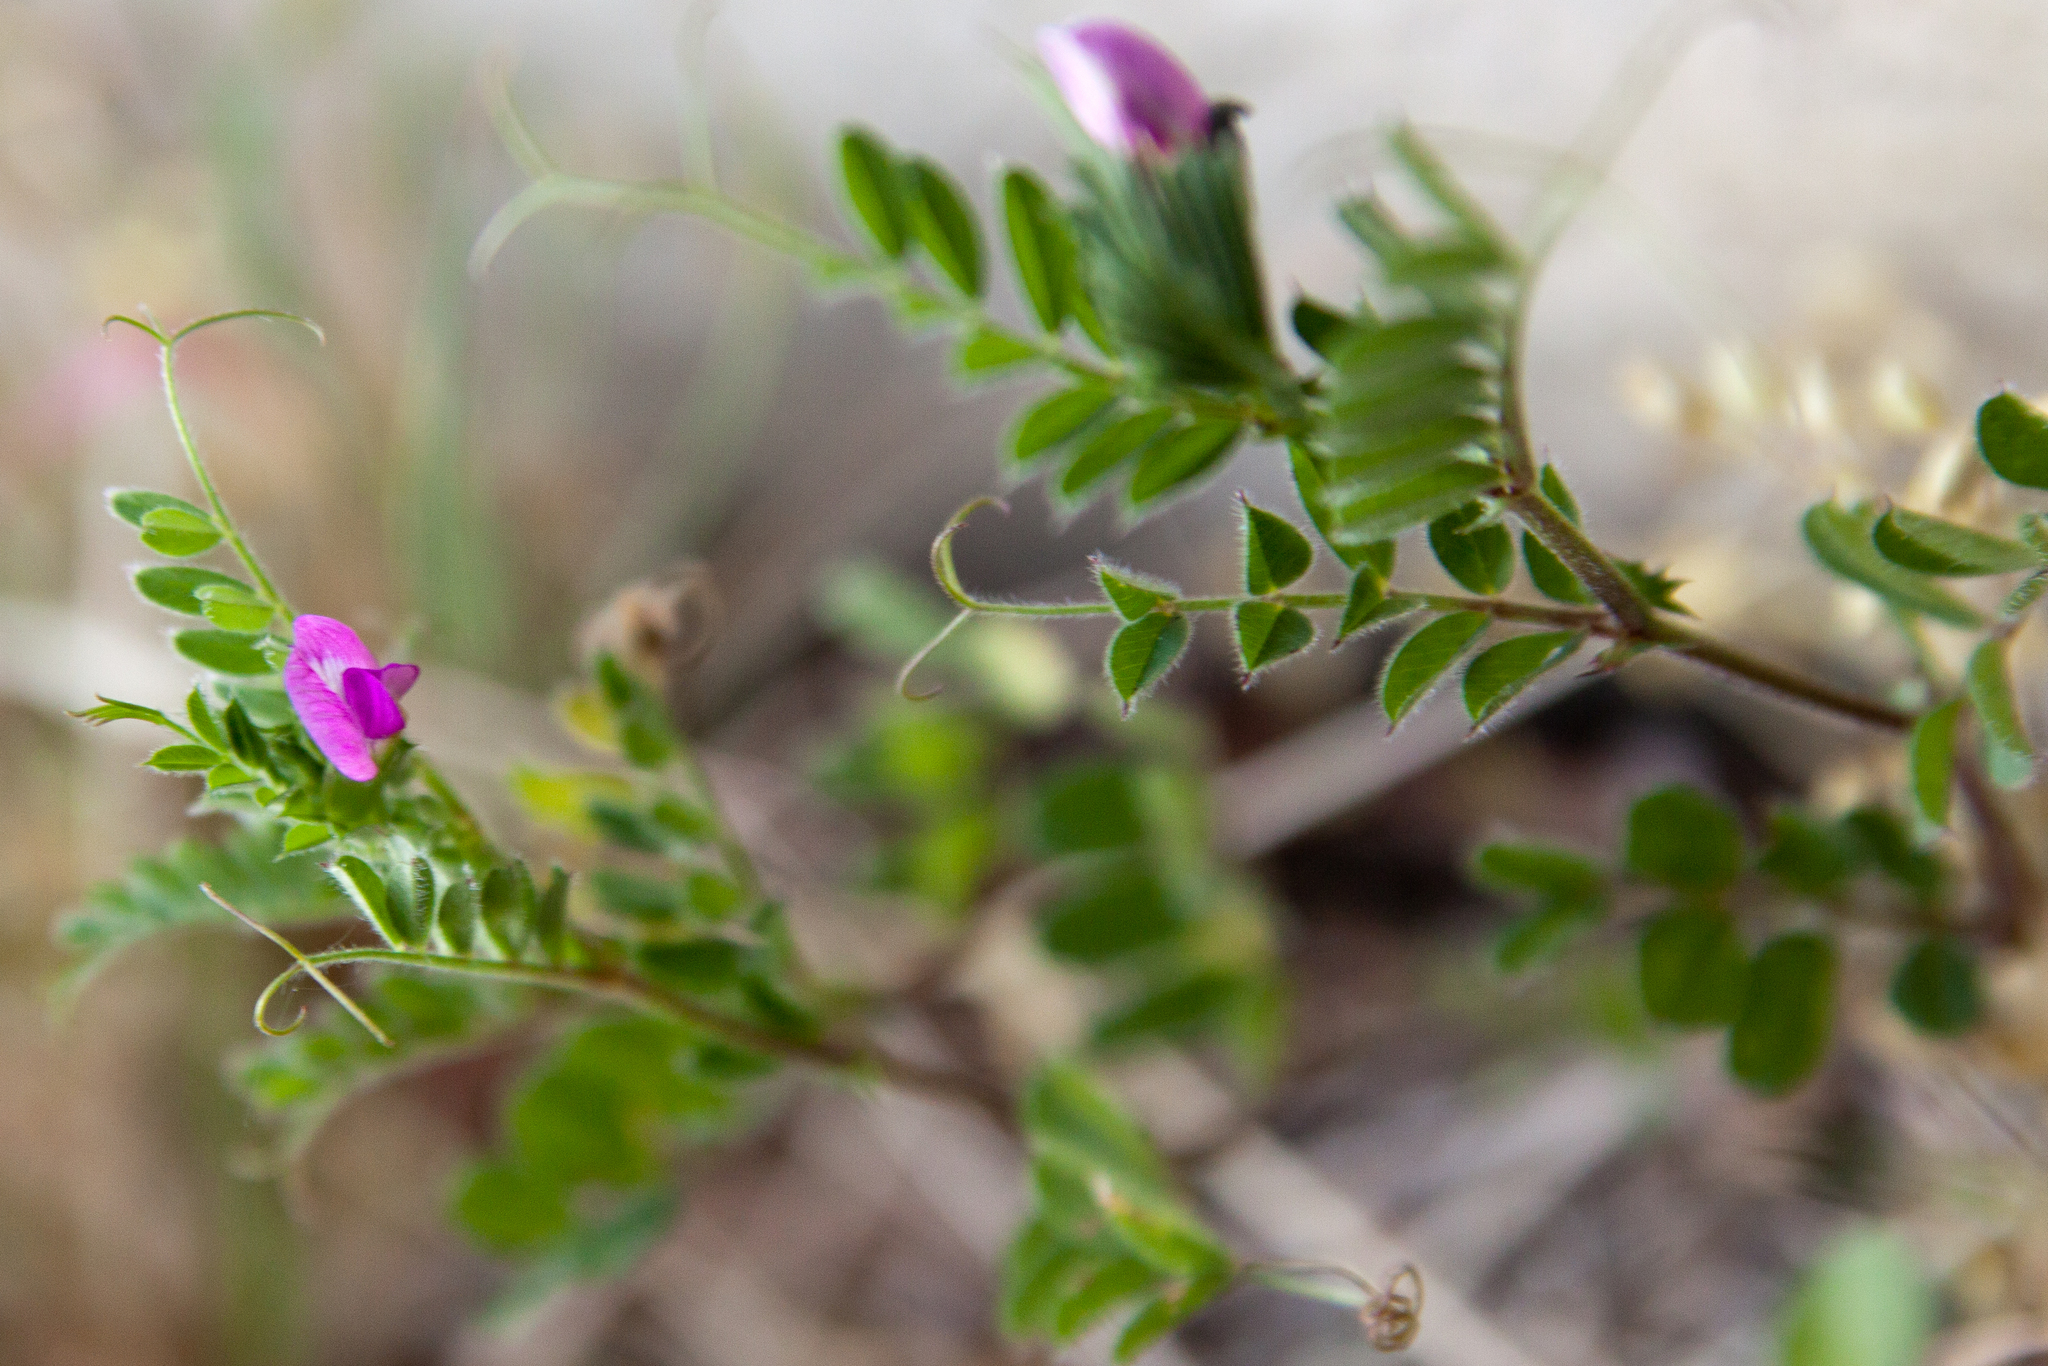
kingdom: Plantae
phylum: Tracheophyta
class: Magnoliopsida
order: Fabales
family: Fabaceae
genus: Vicia
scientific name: Vicia sativa
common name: Garden vetch
